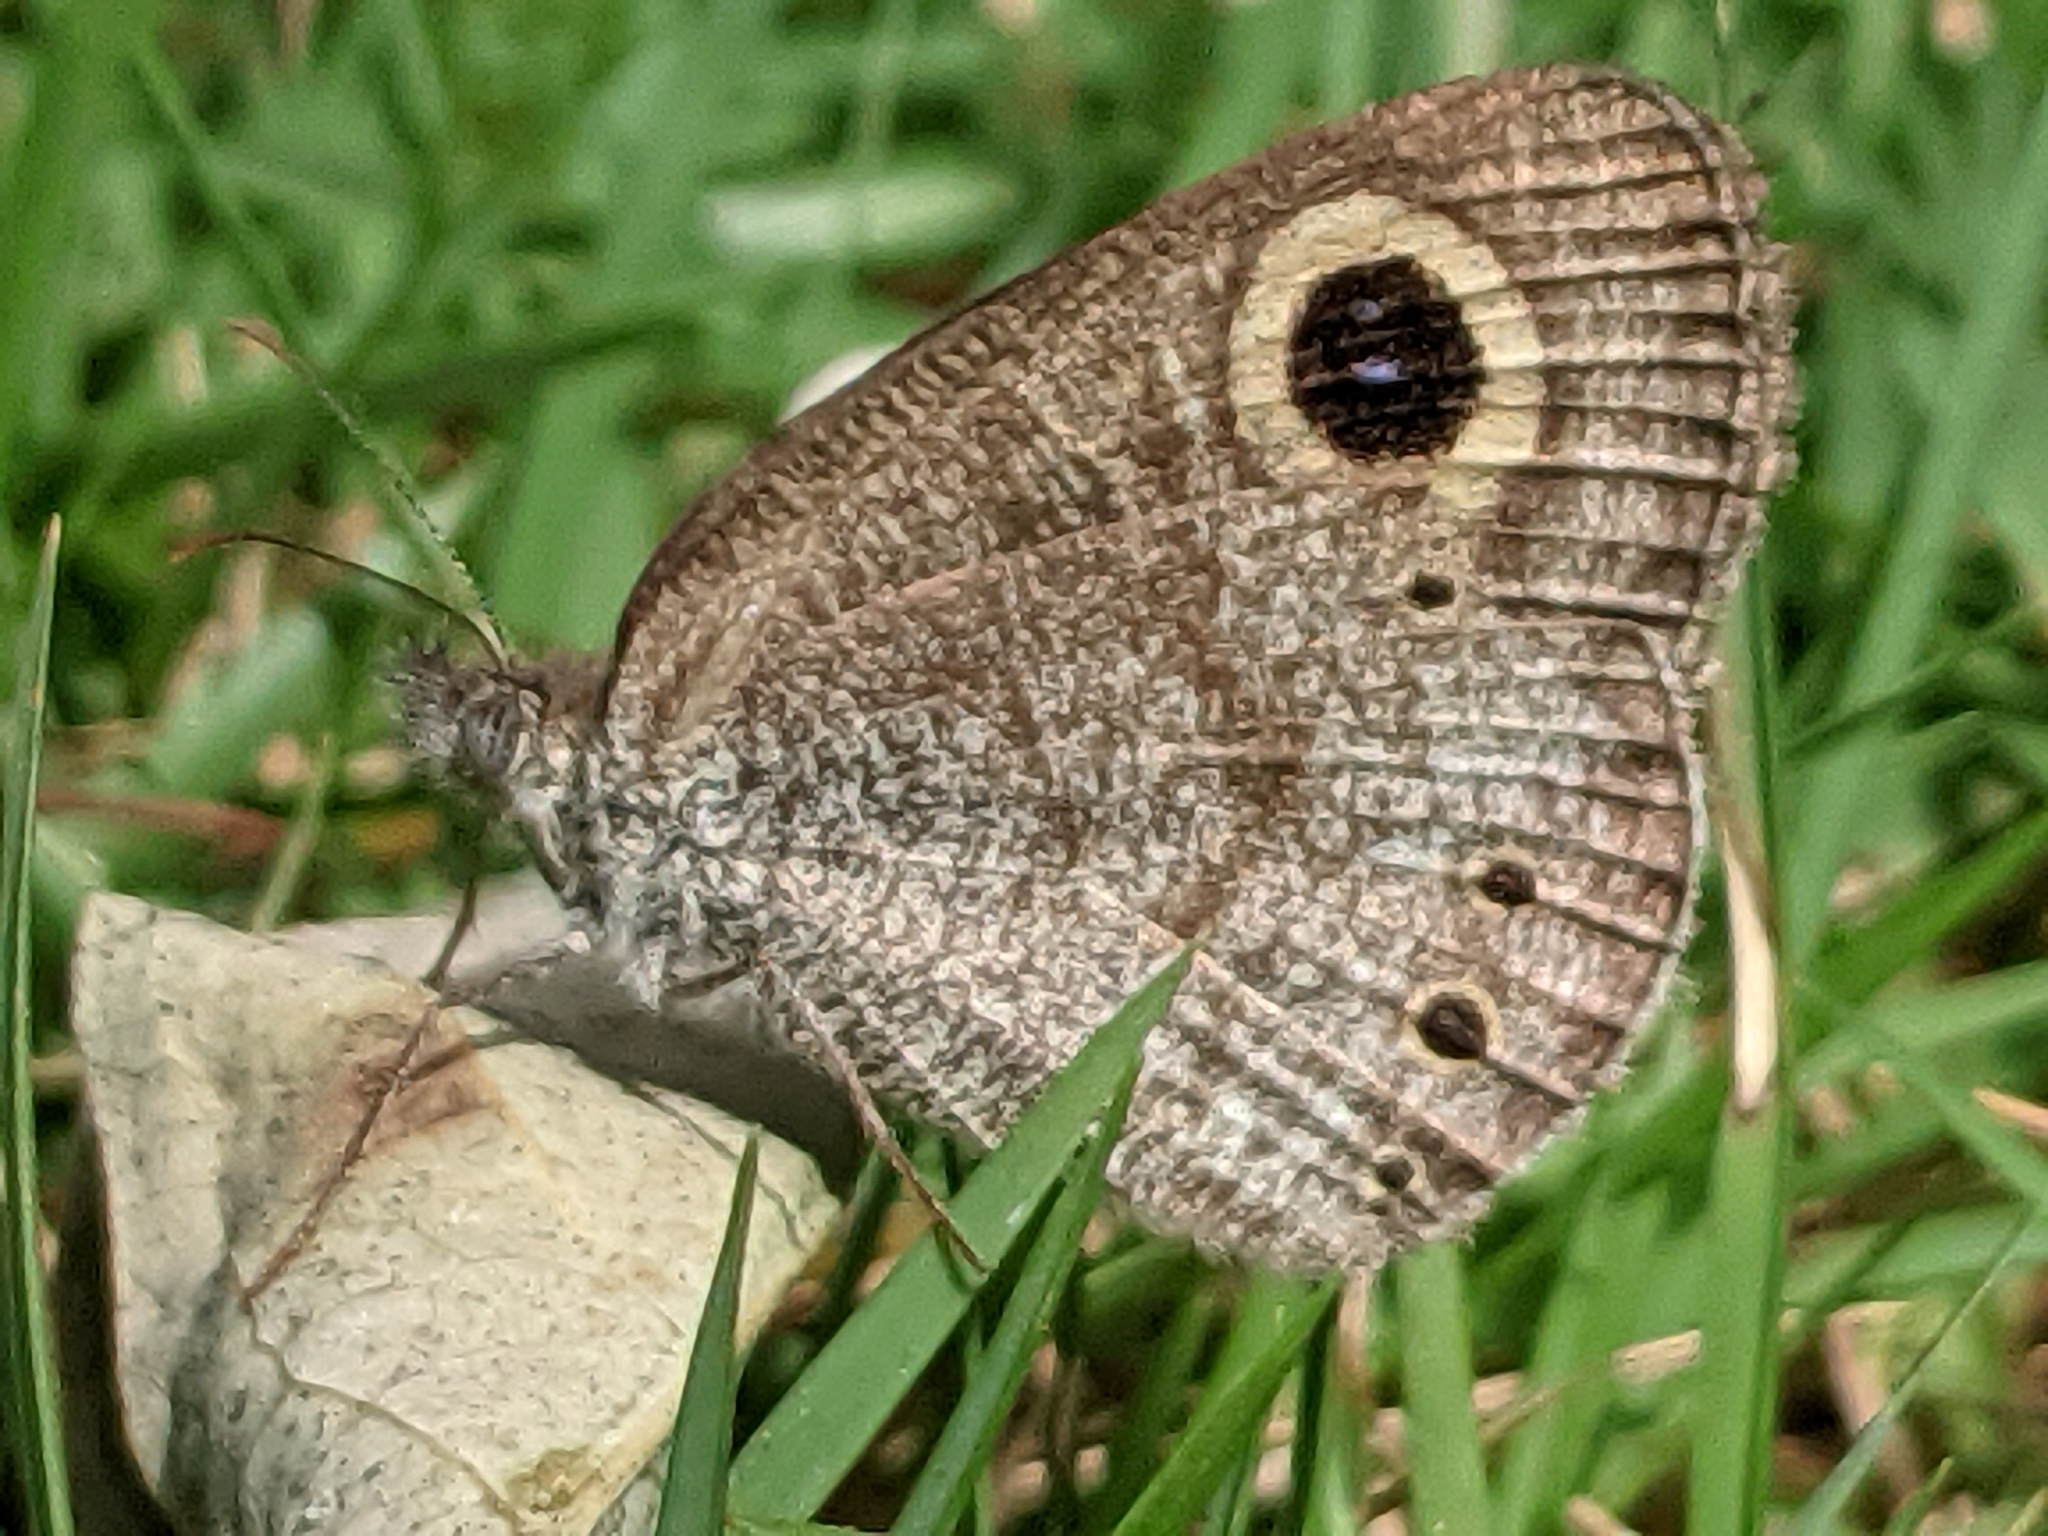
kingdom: Animalia
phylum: Arthropoda
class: Insecta
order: Lepidoptera
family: Nymphalidae
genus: Ypthima
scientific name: Ypthima huebneri
